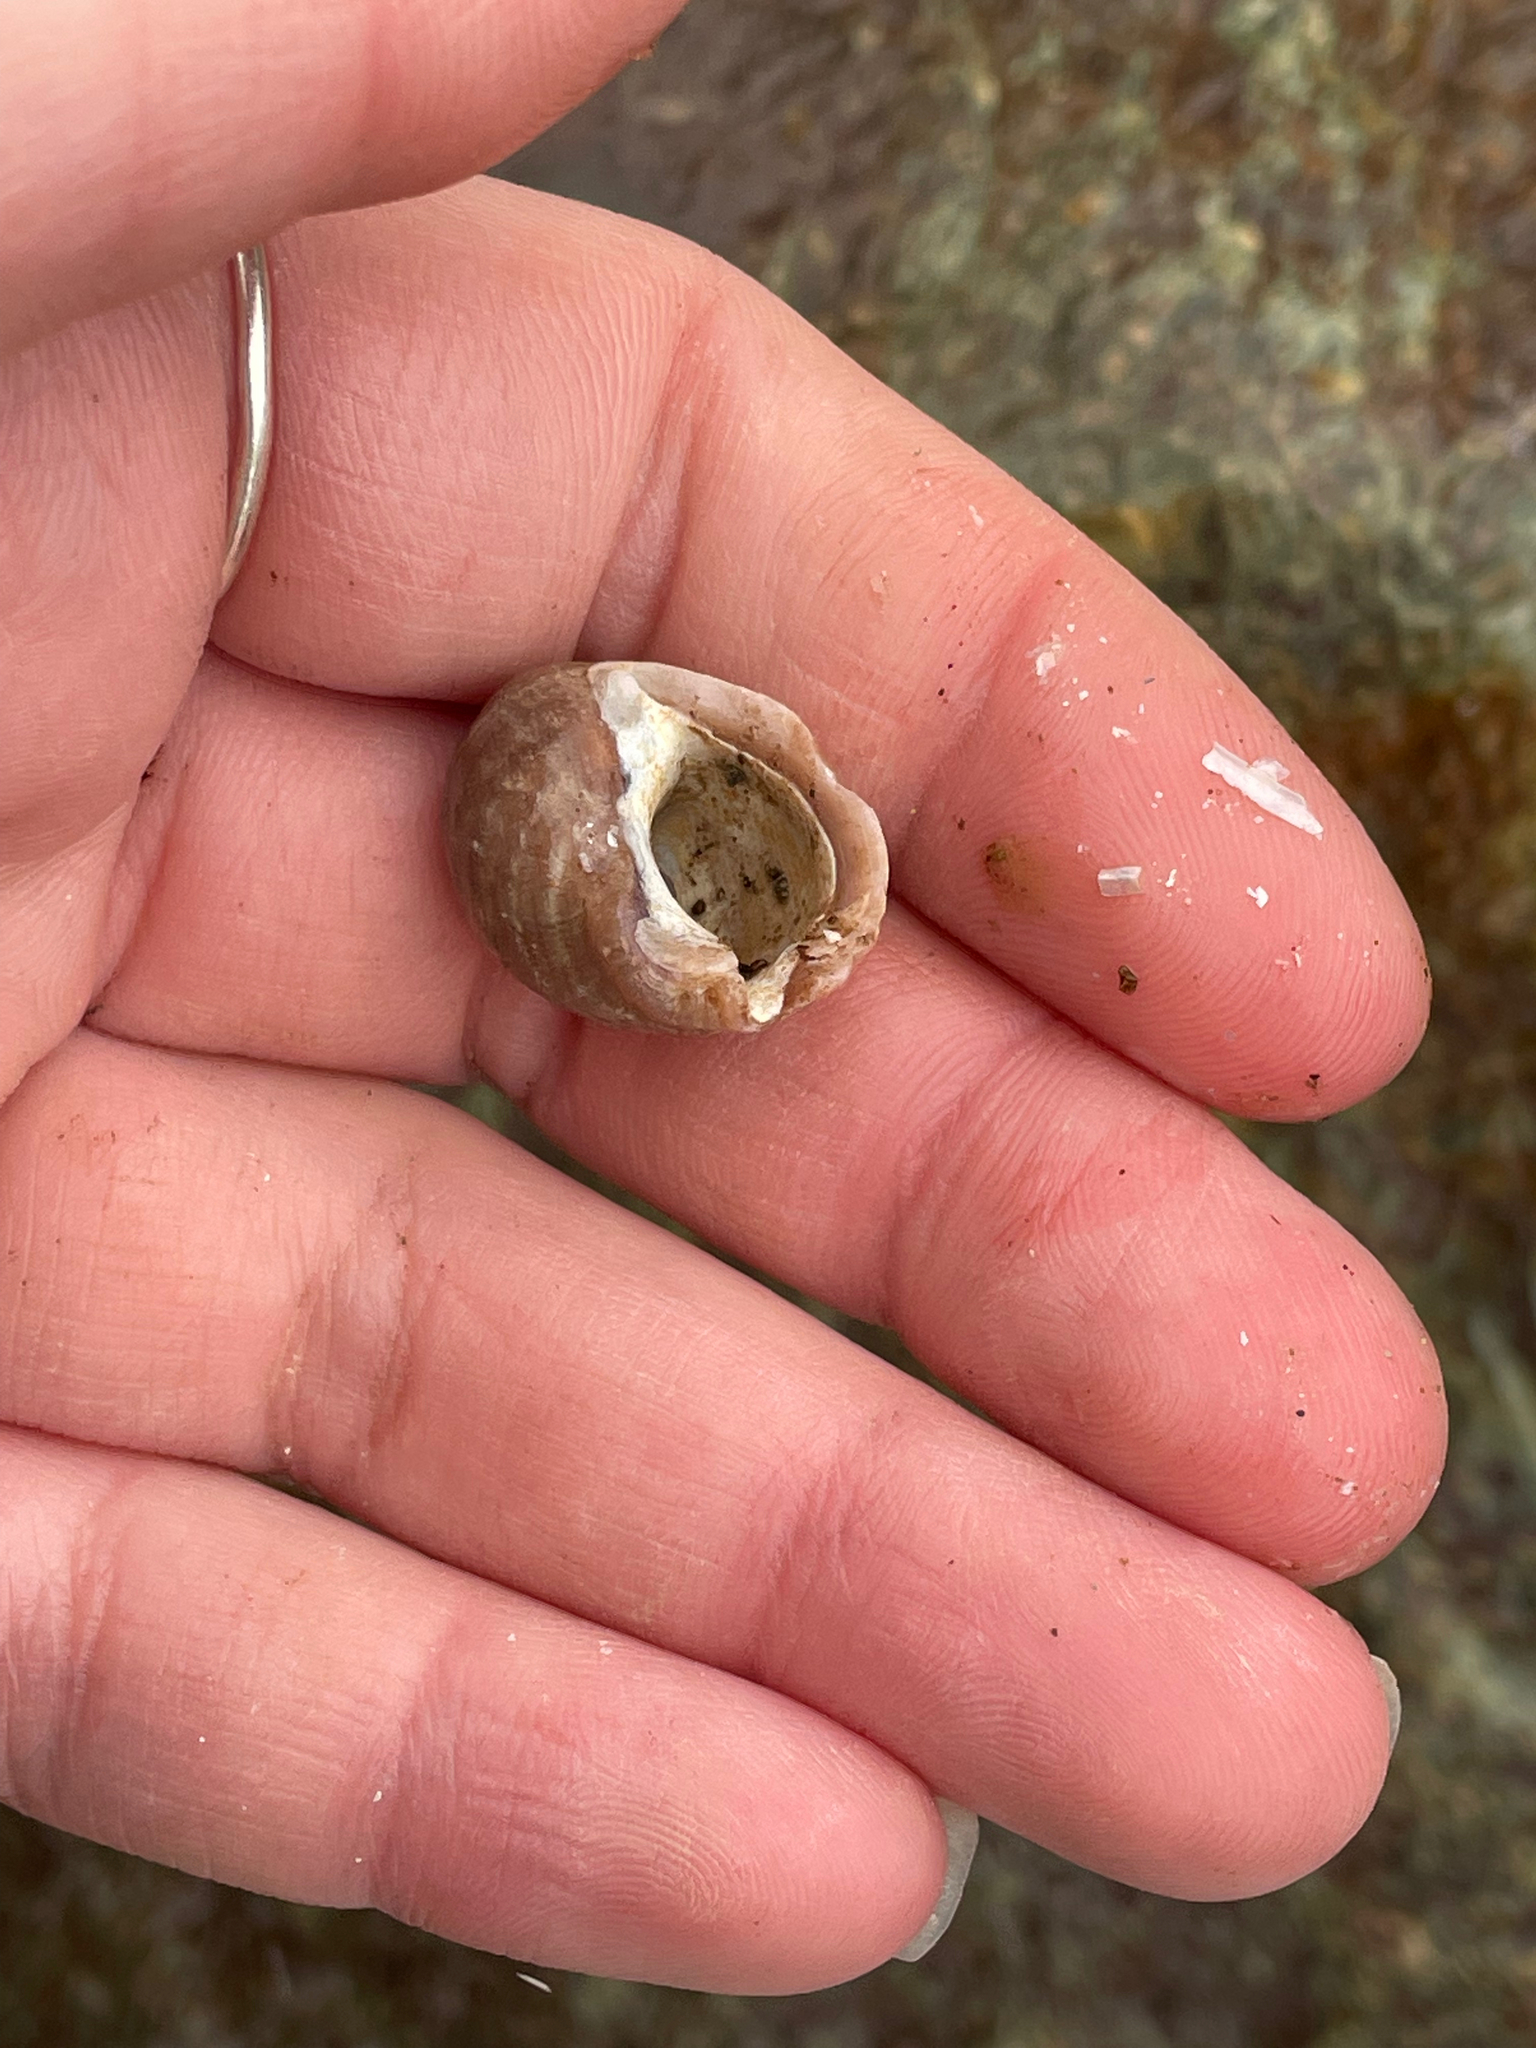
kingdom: Animalia
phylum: Mollusca
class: Gastropoda
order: Neogastropoda
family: Muricidae
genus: Nucella
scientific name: Nucella lapillus
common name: Dog whelk
